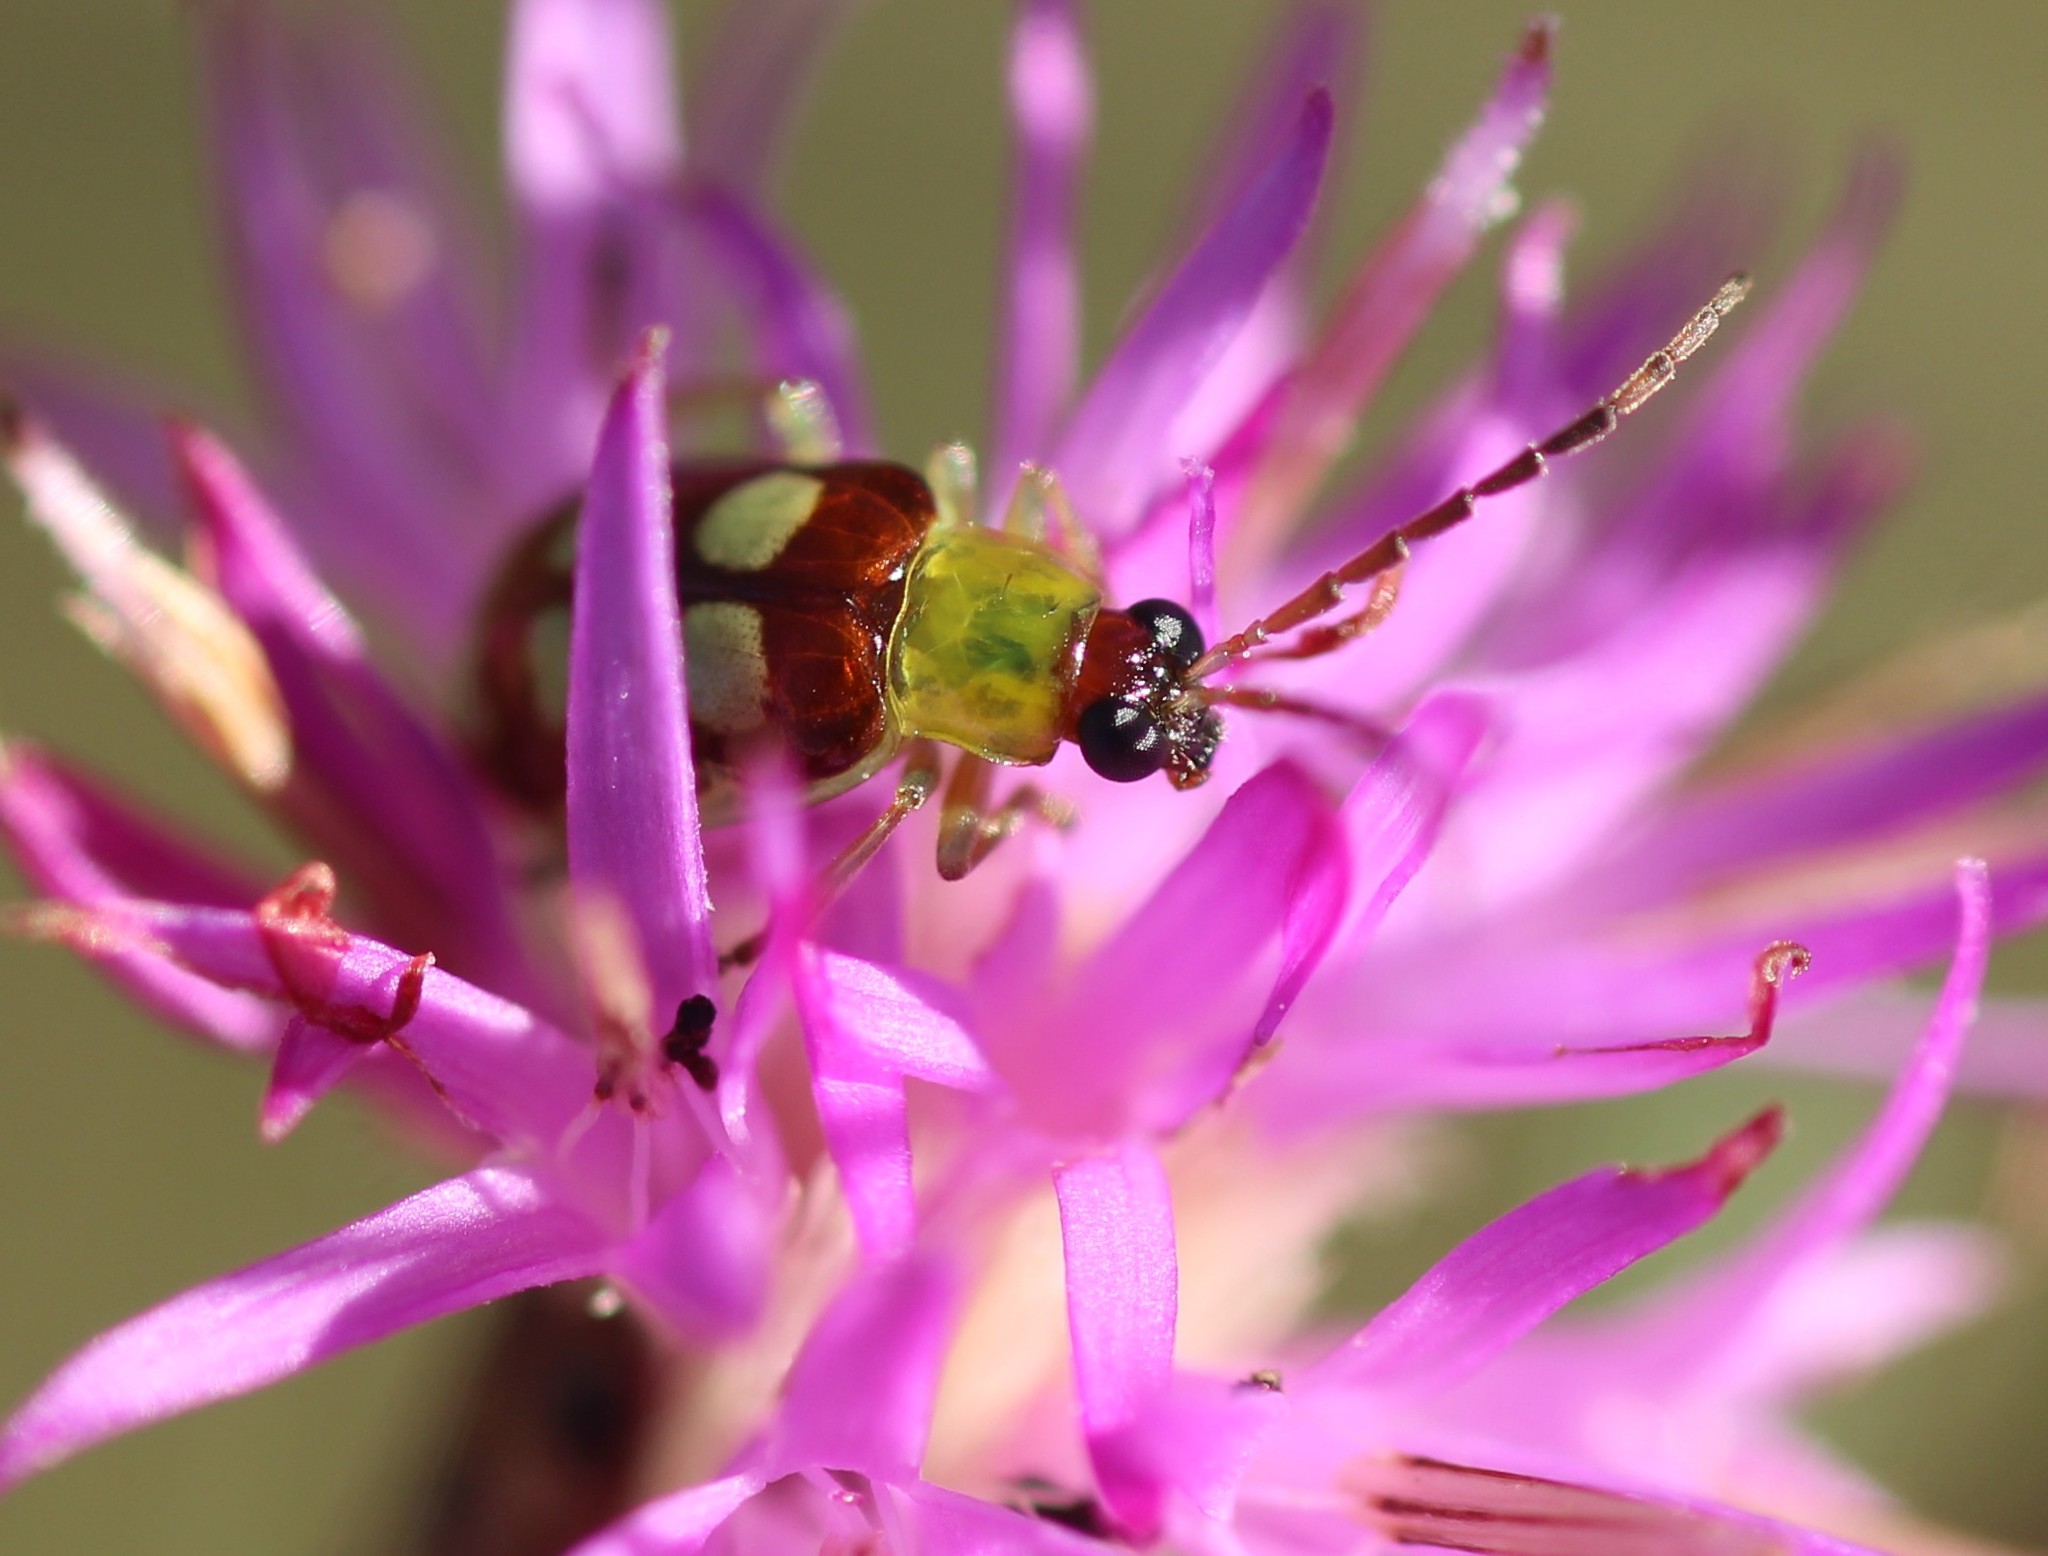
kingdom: Animalia
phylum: Arthropoda
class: Insecta
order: Coleoptera
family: Chrysomelidae
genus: Basiprionota
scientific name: Basiprionota sinuata
